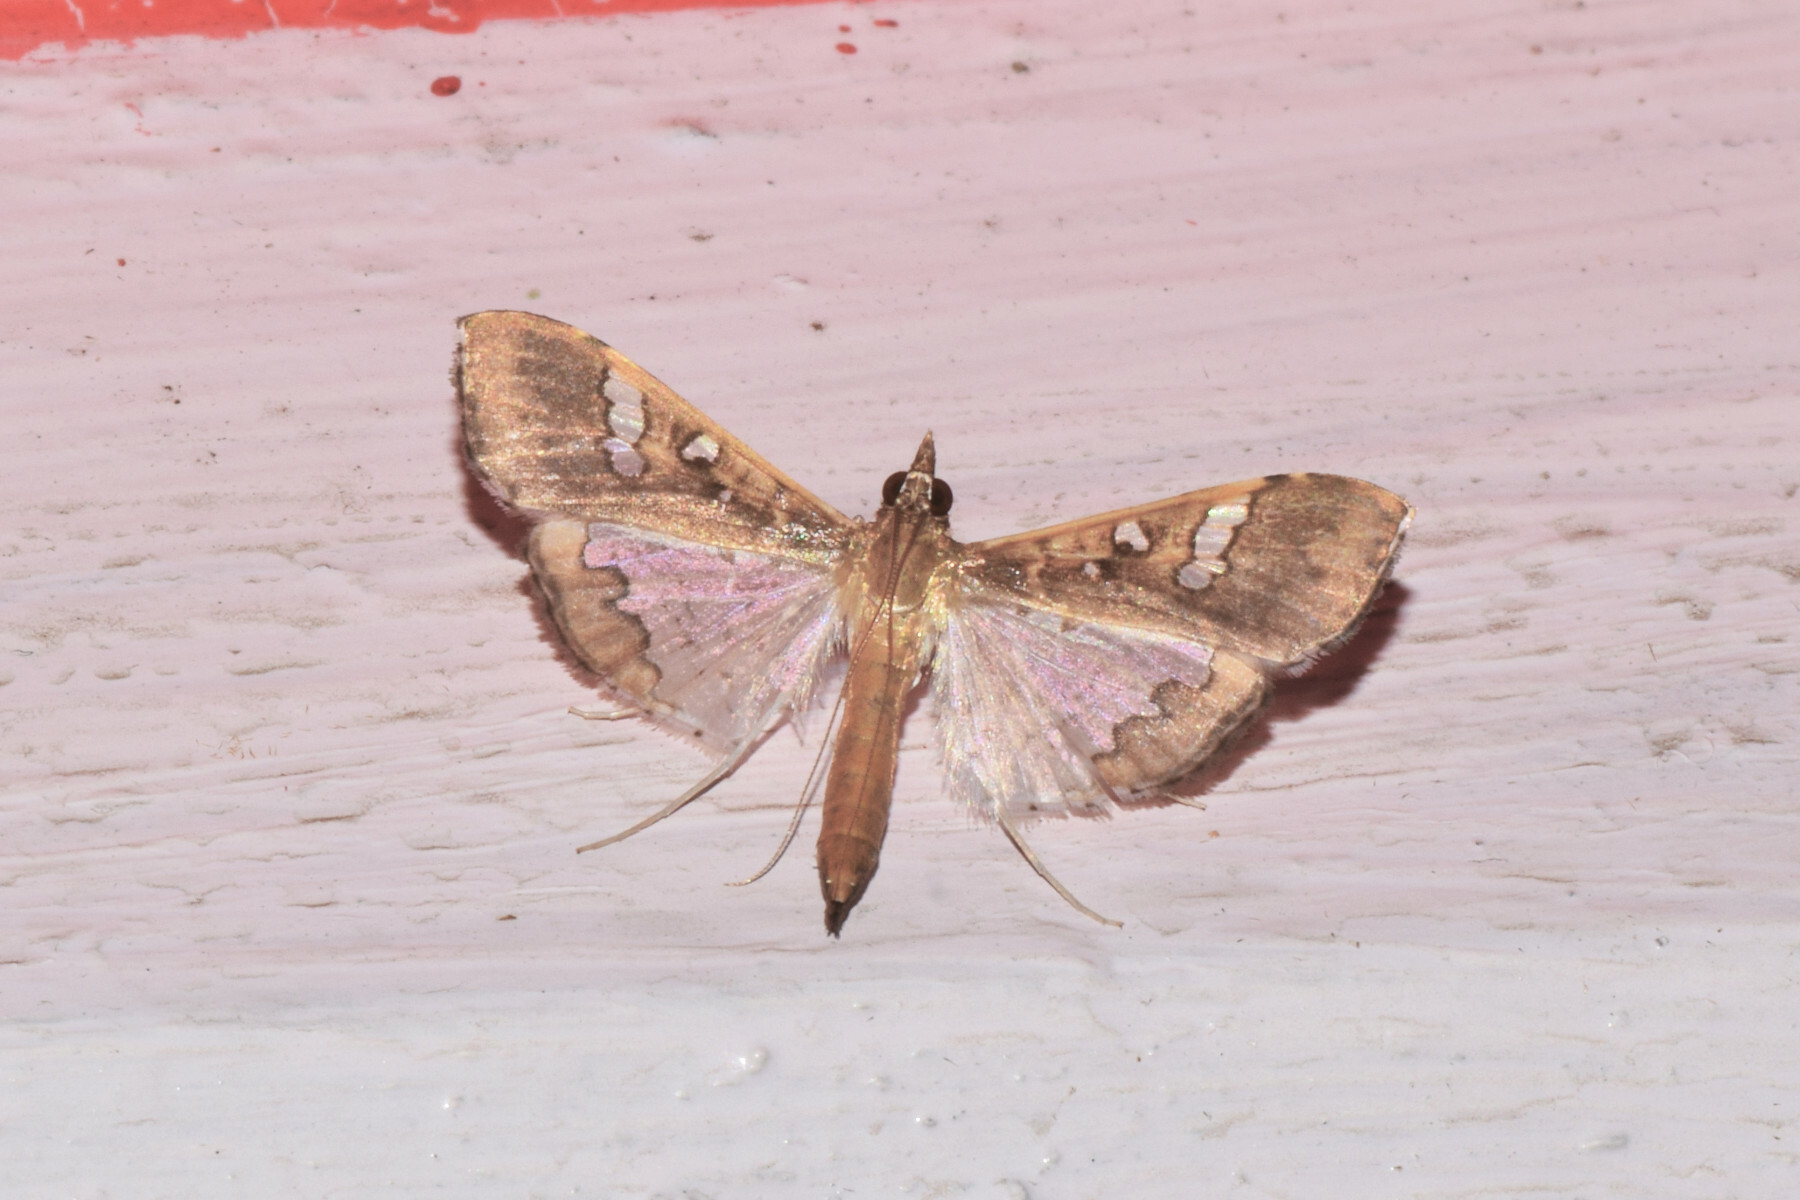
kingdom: Animalia
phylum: Arthropoda
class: Insecta
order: Lepidoptera
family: Crambidae
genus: Maruca
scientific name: Maruca vitrata
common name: Maruca pod borer
